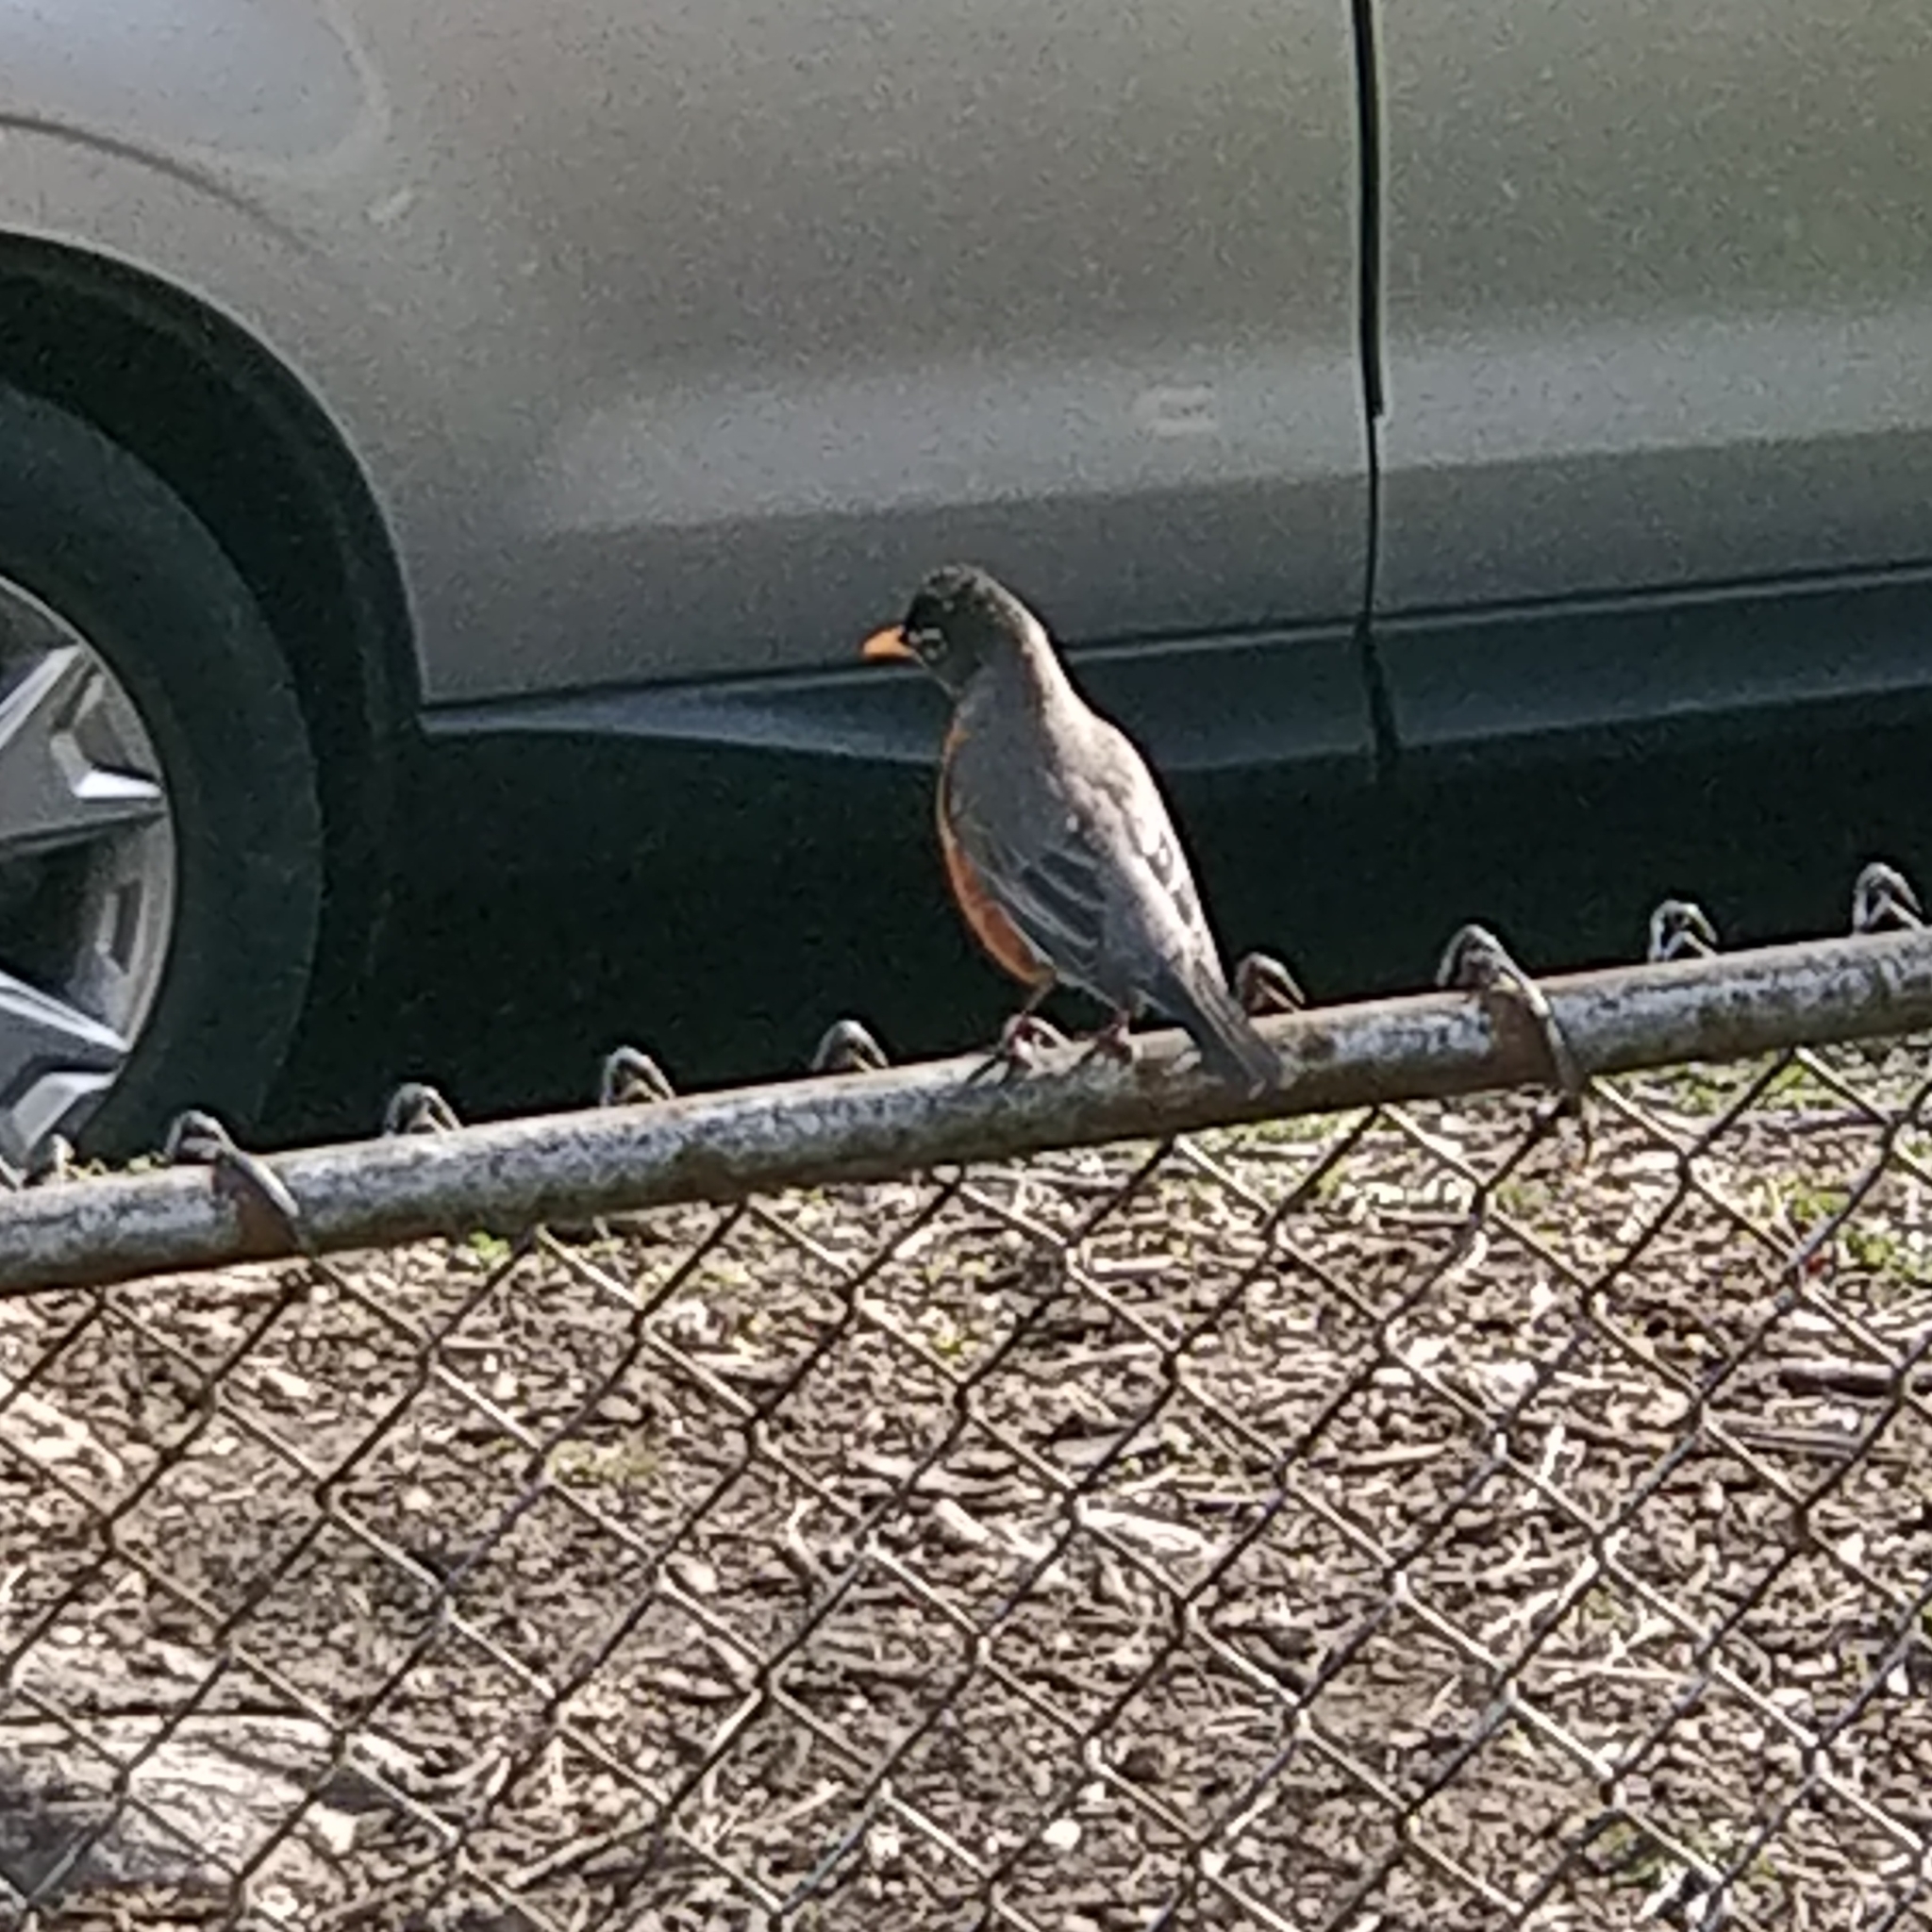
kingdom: Animalia
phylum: Chordata
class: Aves
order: Passeriformes
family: Turdidae
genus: Turdus
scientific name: Turdus migratorius
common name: American robin
